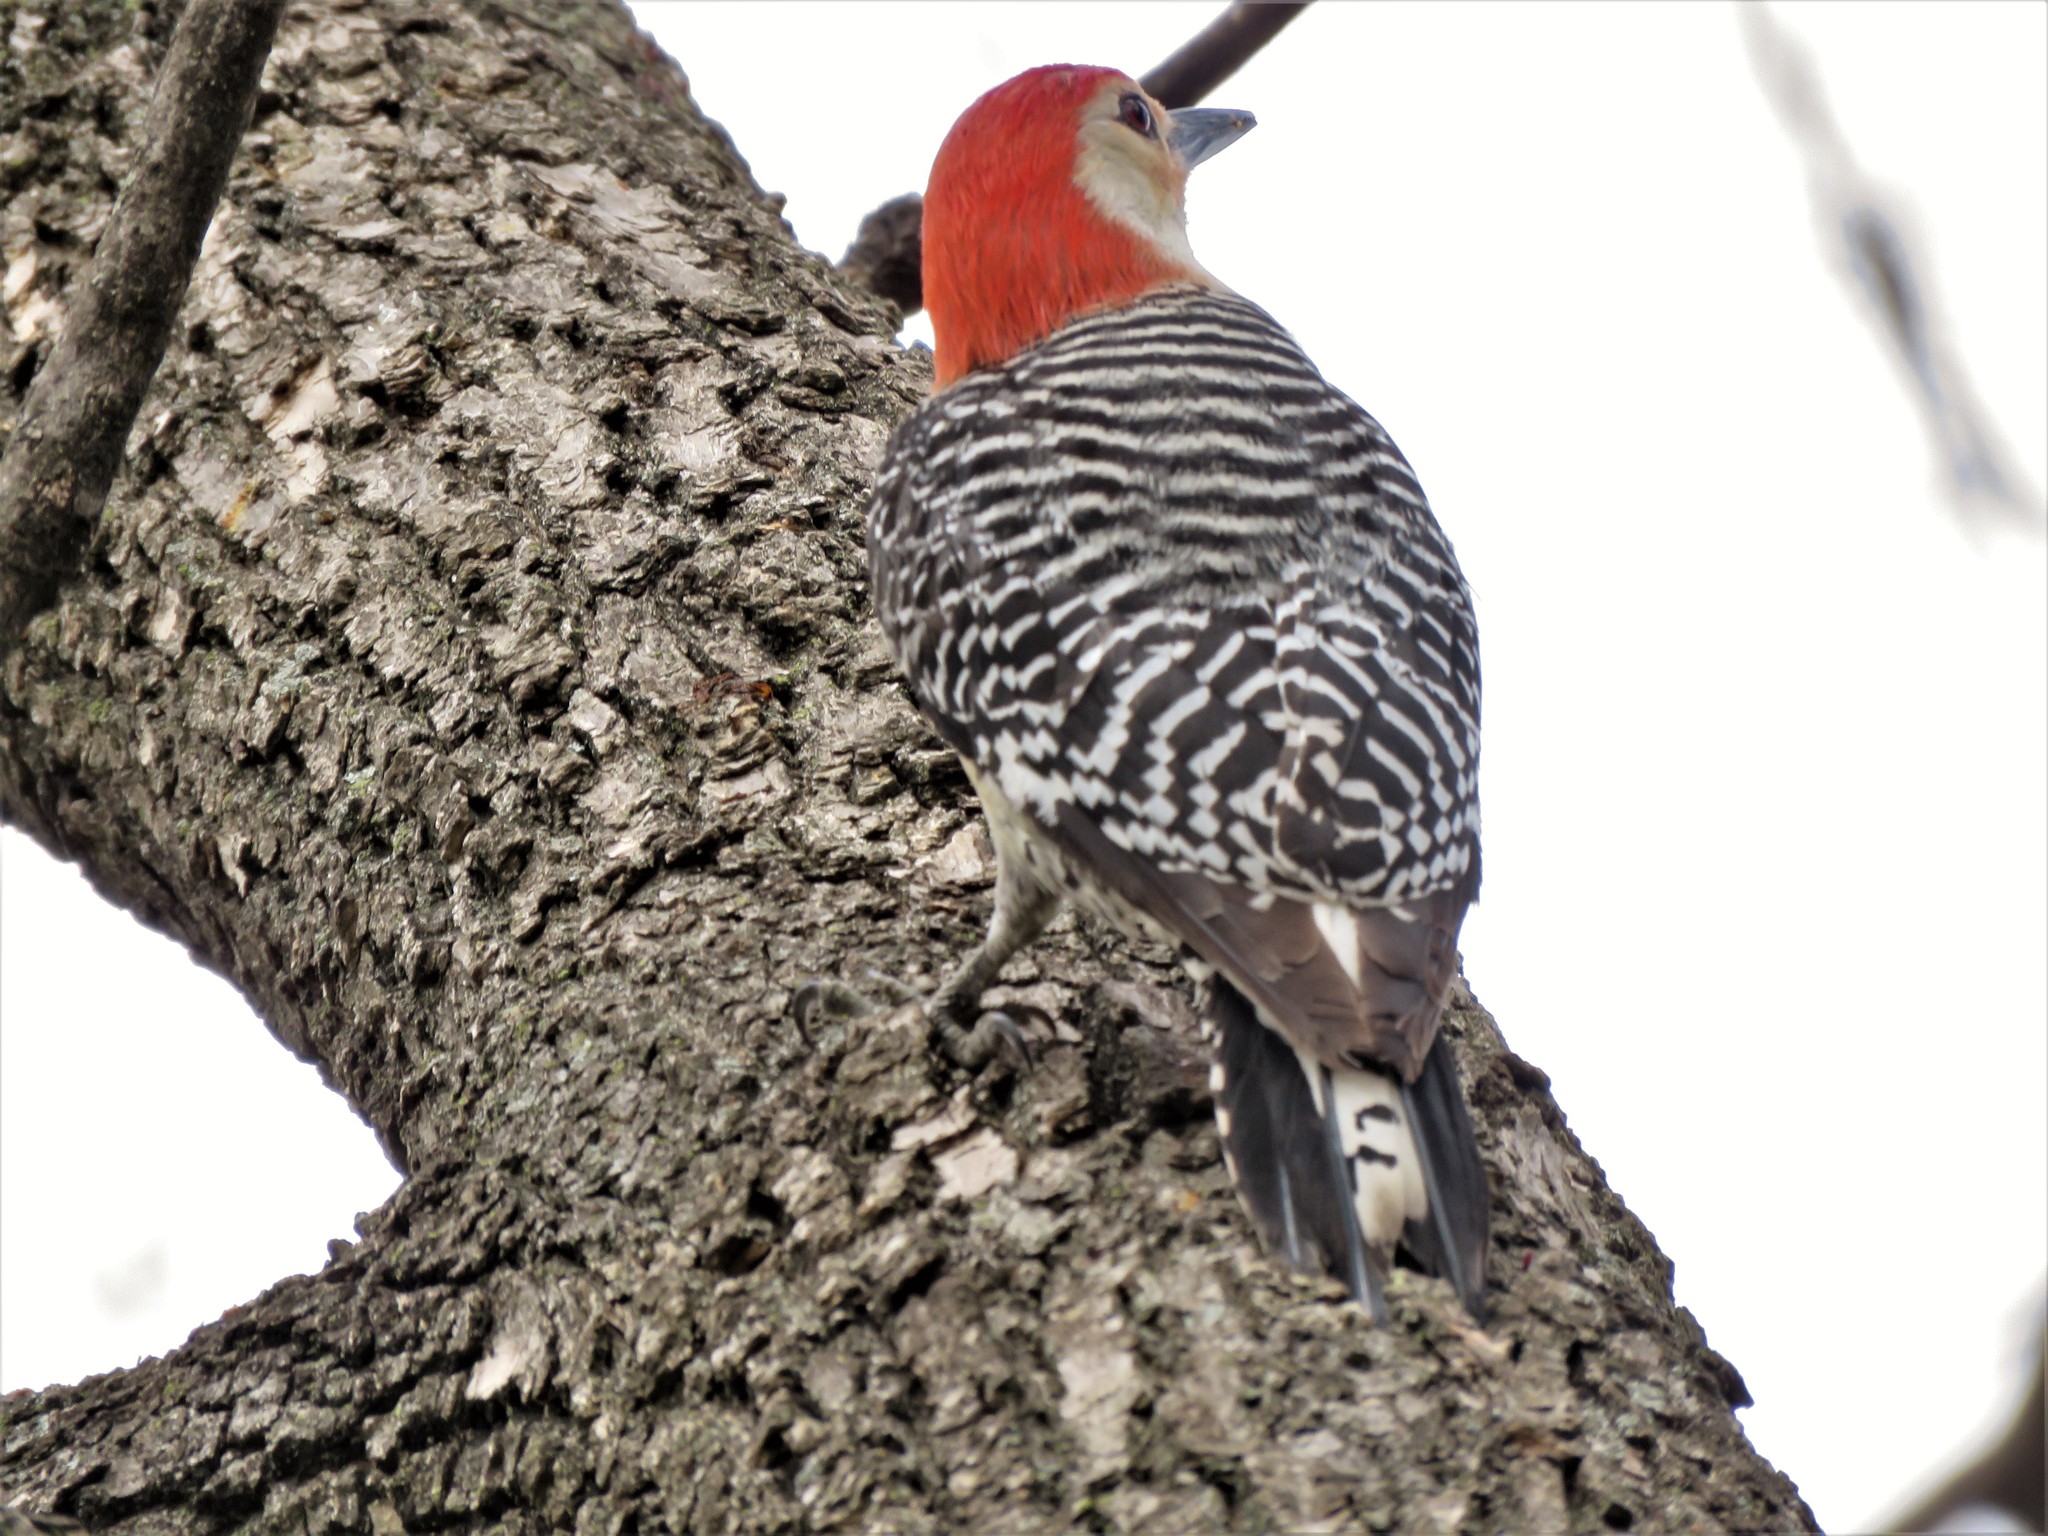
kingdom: Animalia
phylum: Chordata
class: Aves
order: Piciformes
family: Picidae
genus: Melanerpes
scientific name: Melanerpes carolinus
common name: Red-bellied woodpecker
